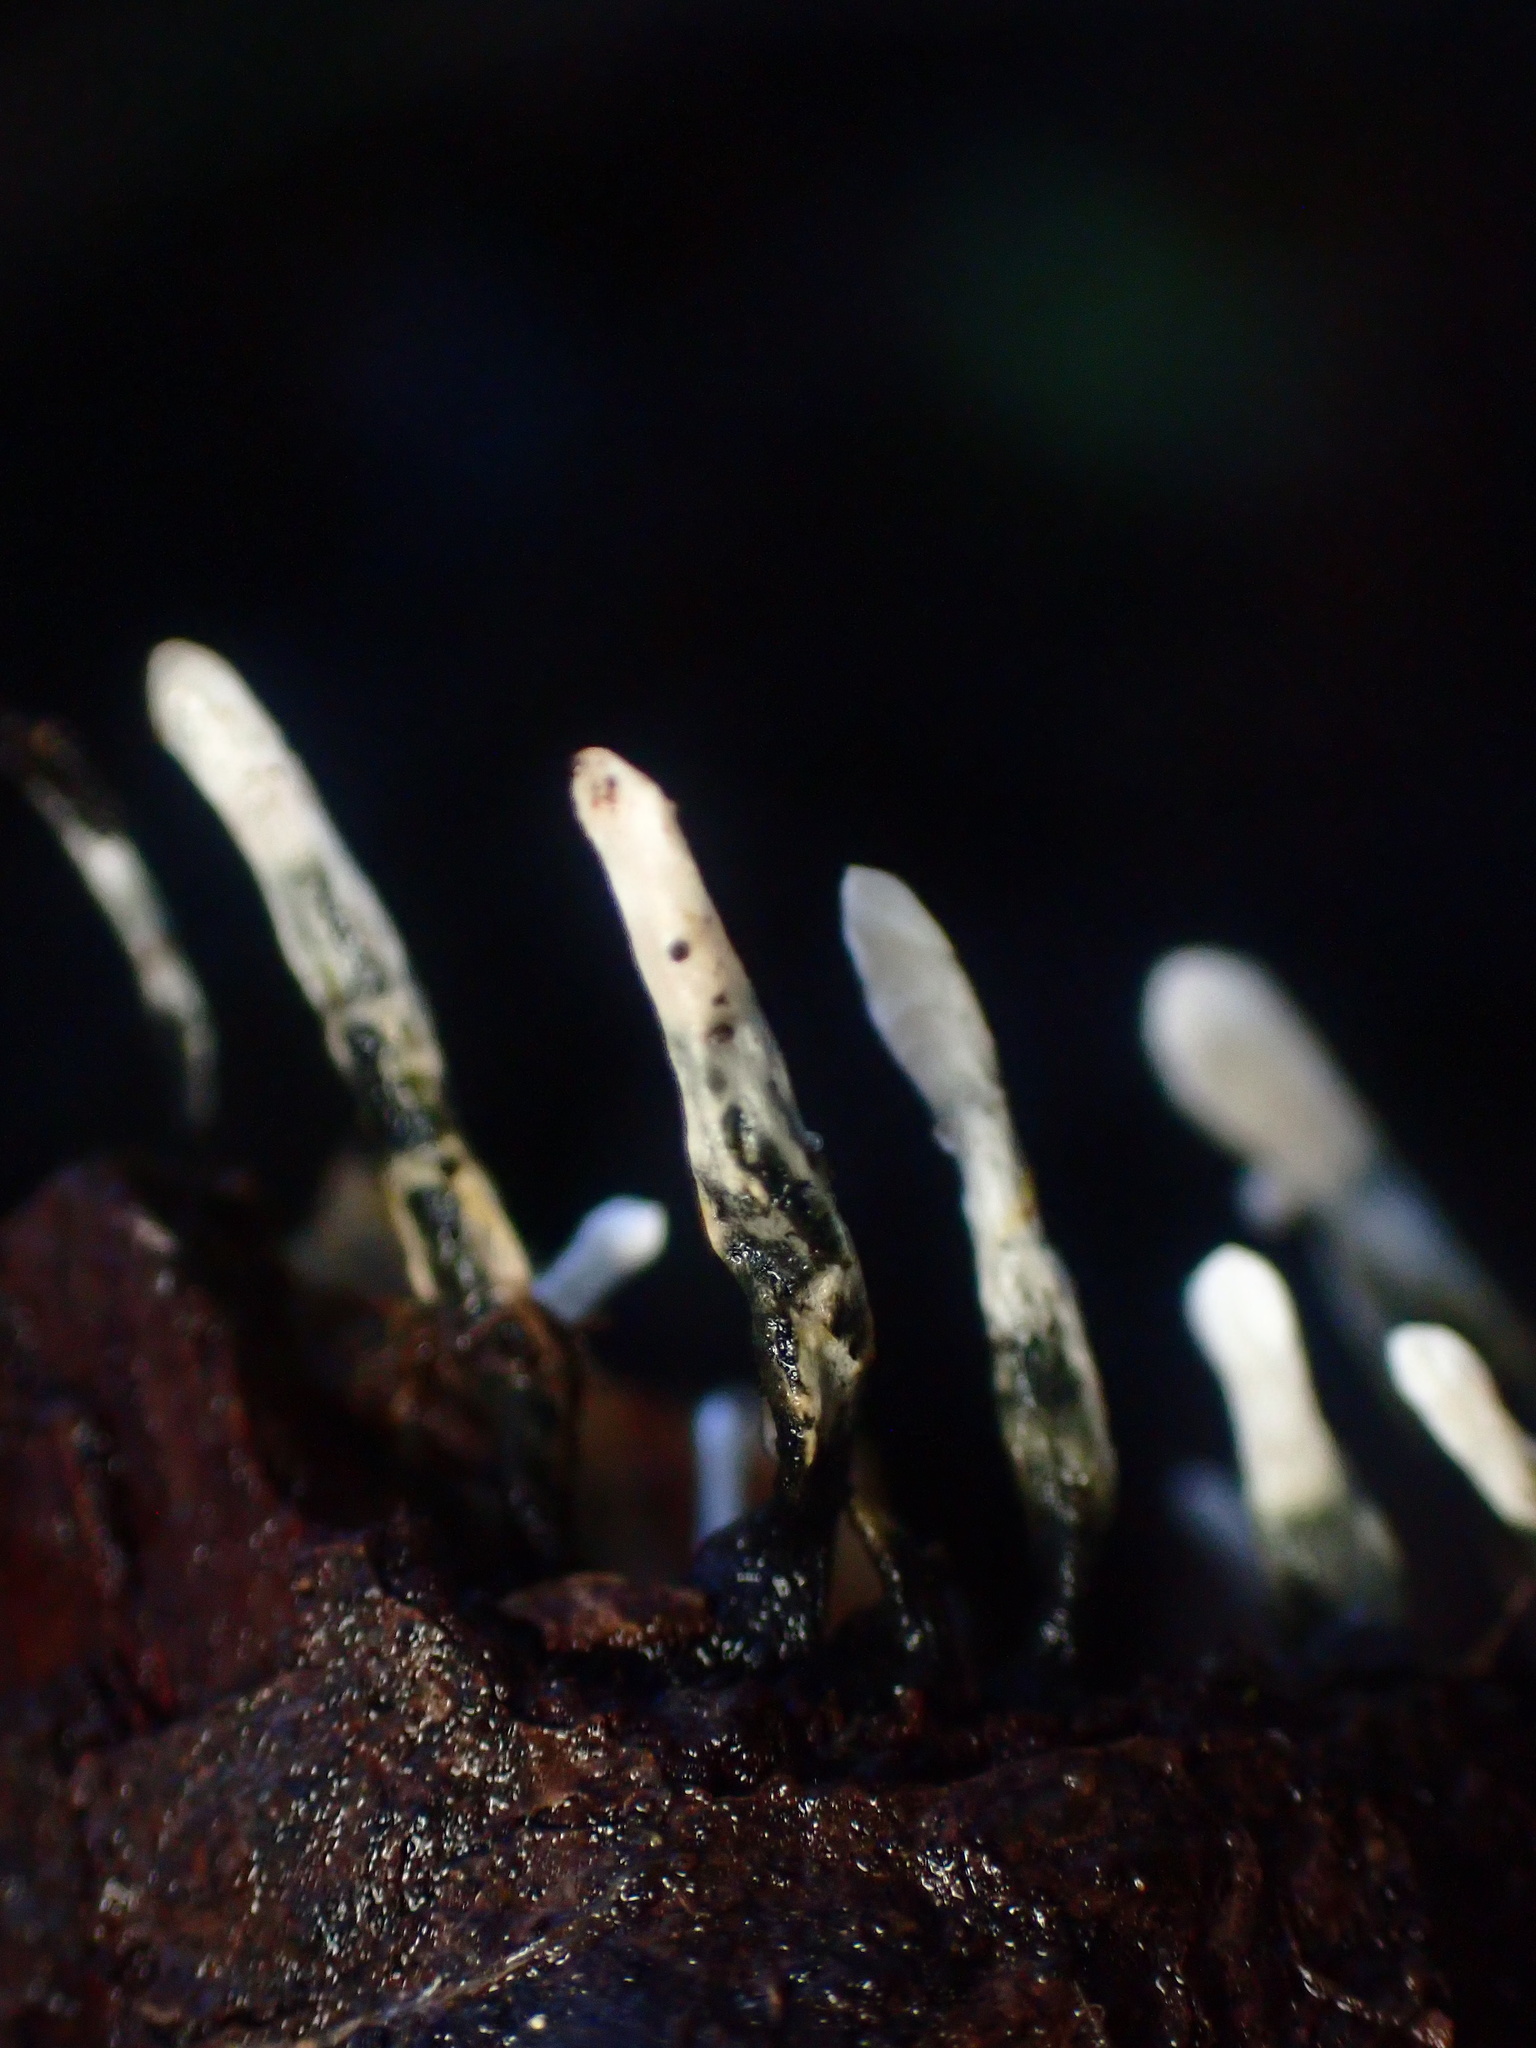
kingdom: Fungi
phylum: Ascomycota
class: Sordariomycetes
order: Xylariales
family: Xylariaceae
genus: Xylaria
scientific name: Xylaria hypoxylon
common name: Candle-snuff fungus
